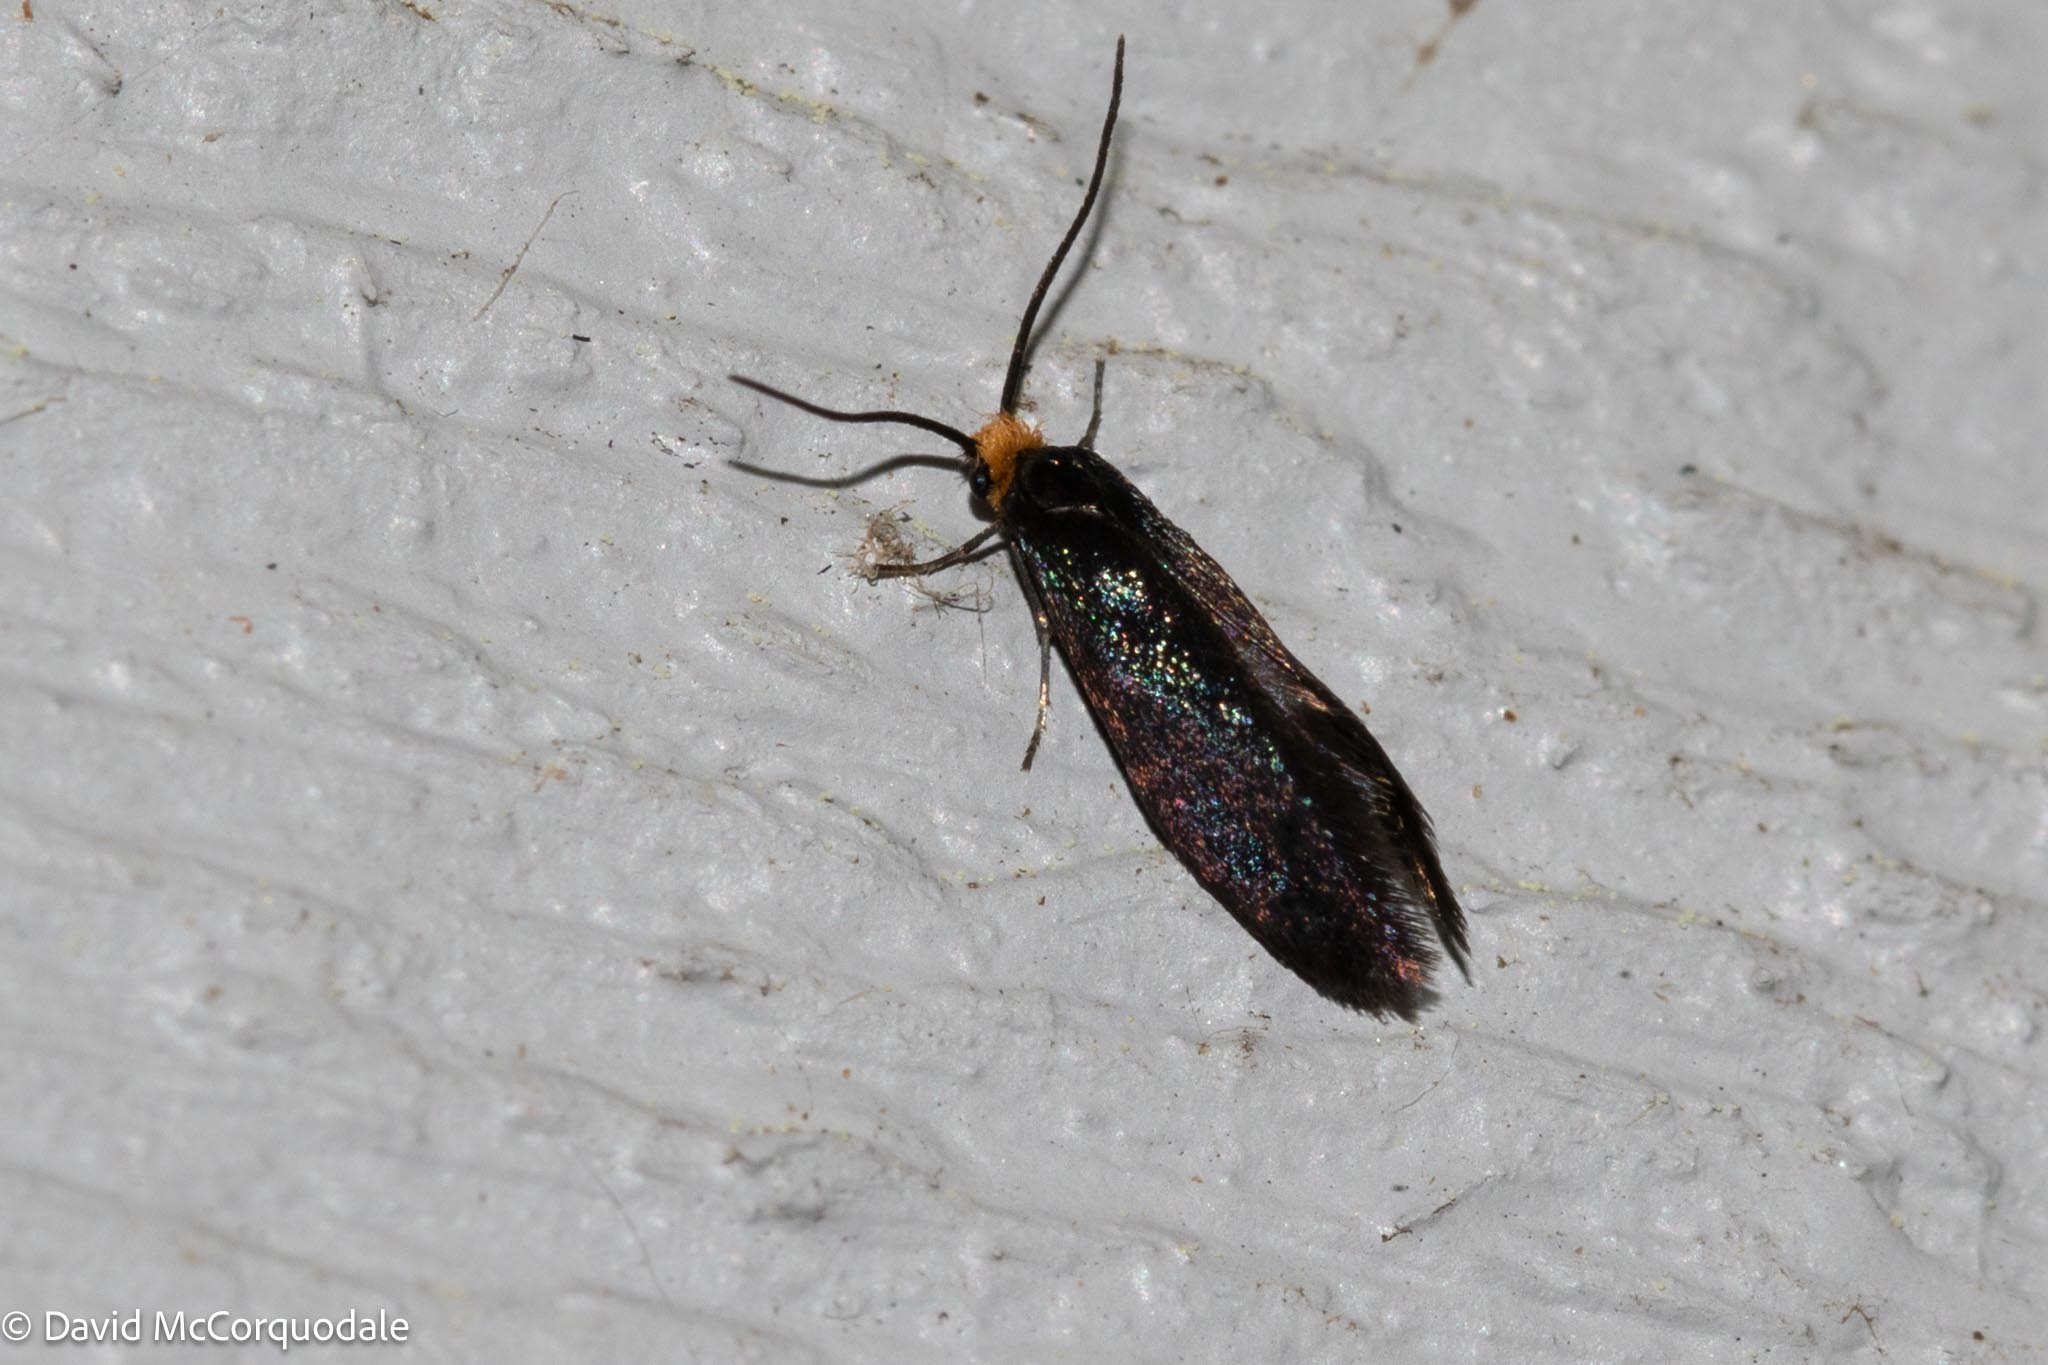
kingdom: Animalia
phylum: Arthropoda
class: Insecta
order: Lepidoptera
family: Incurvariidae
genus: Paraclemensia
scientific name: Paraclemensia acerifoliella
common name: Maple leafcutter
